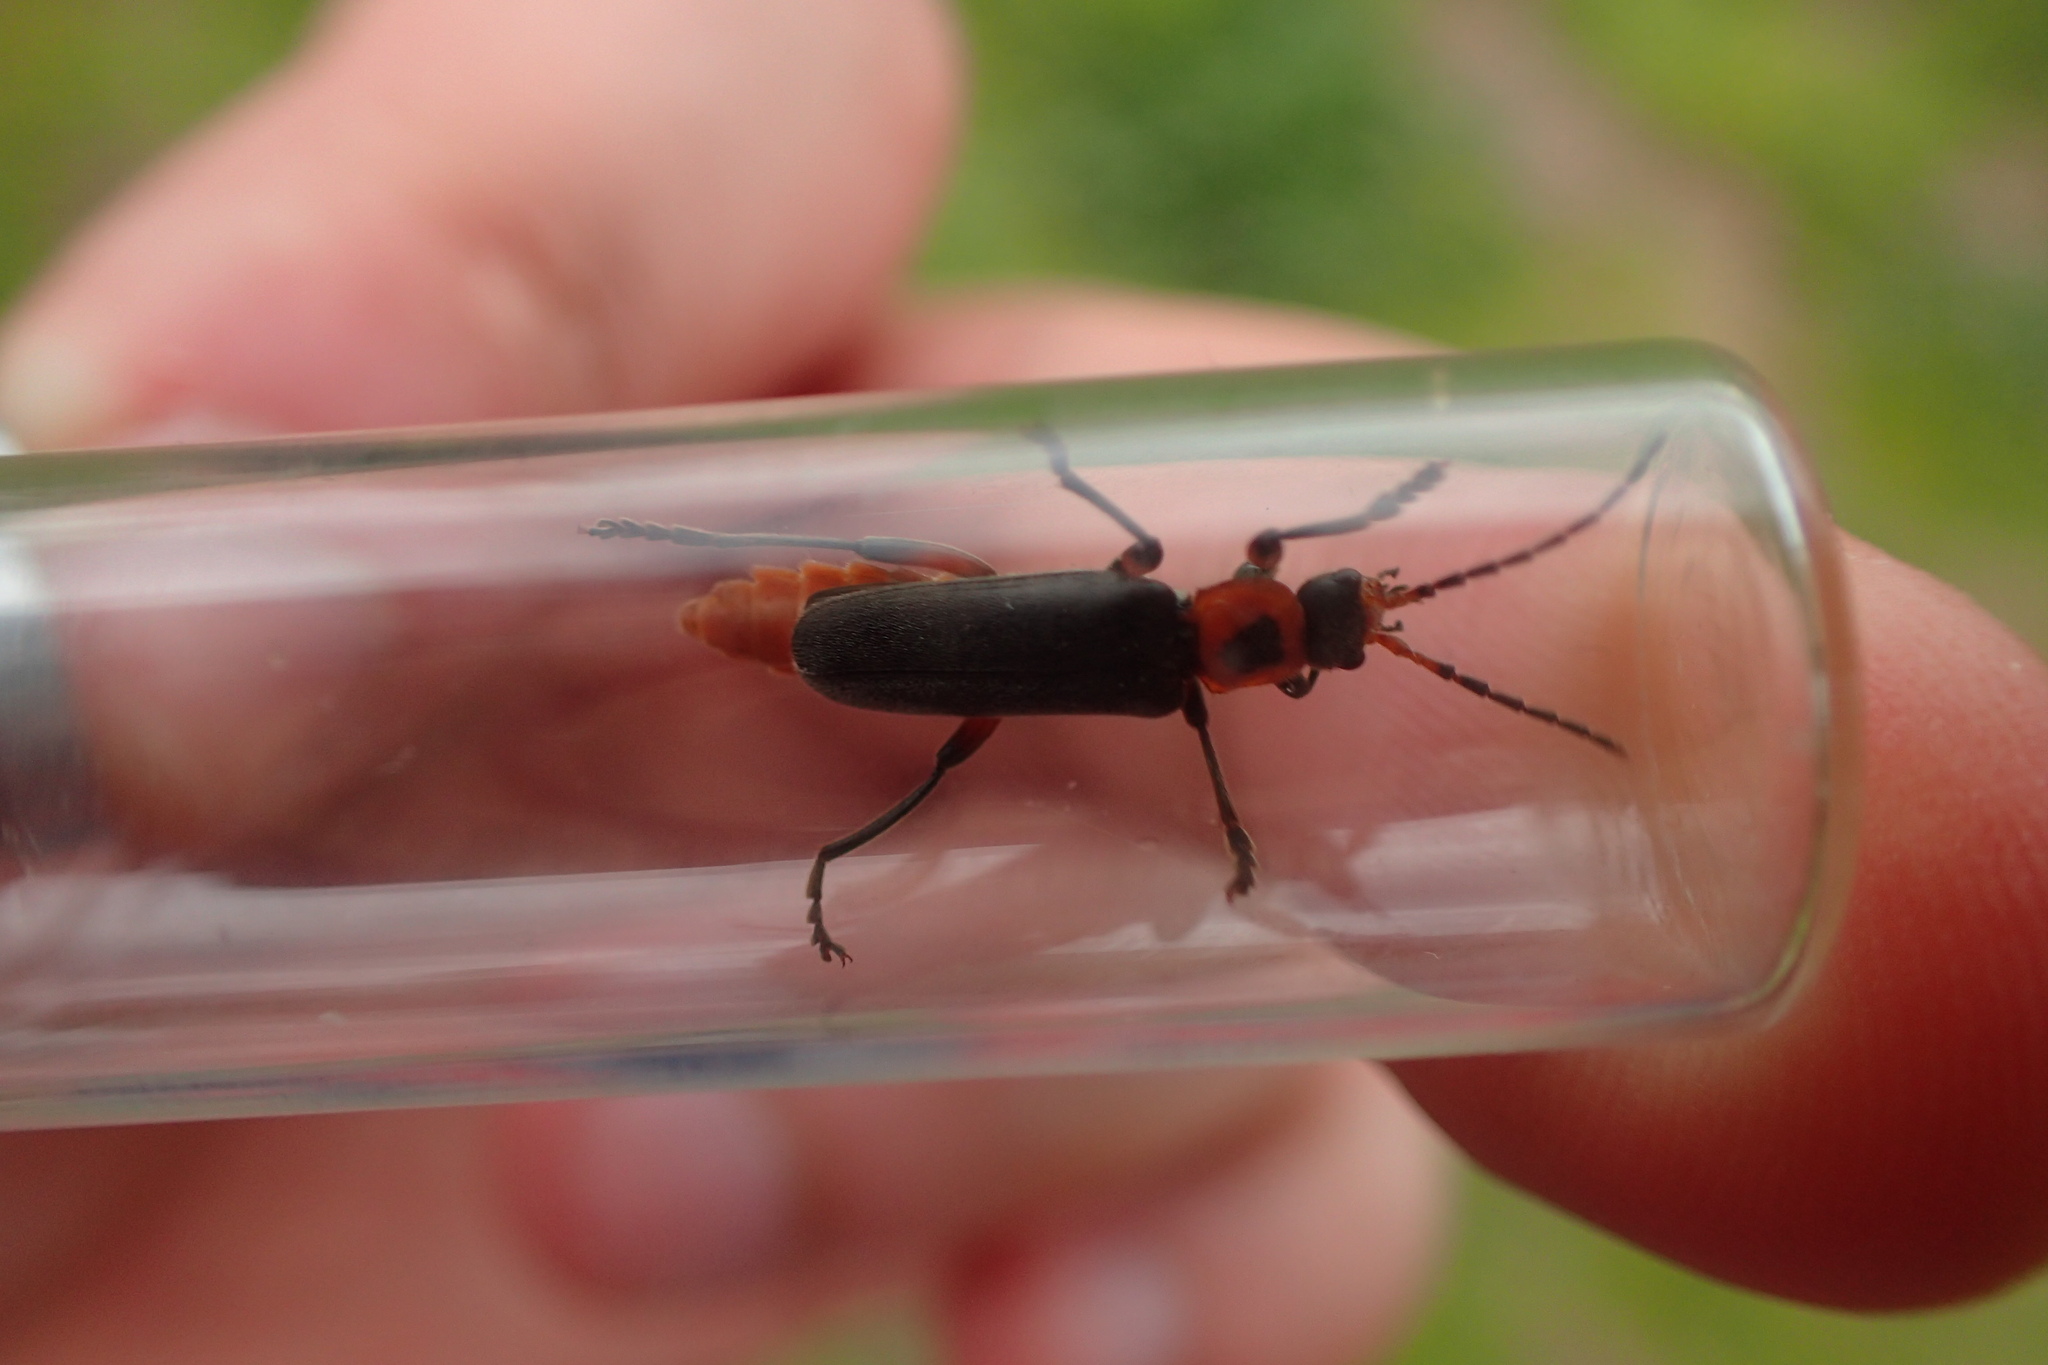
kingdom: Animalia
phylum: Arthropoda
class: Insecta
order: Coleoptera
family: Cantharidae
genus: Cantharis
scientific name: Cantharis rustica
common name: Soldier beetle
